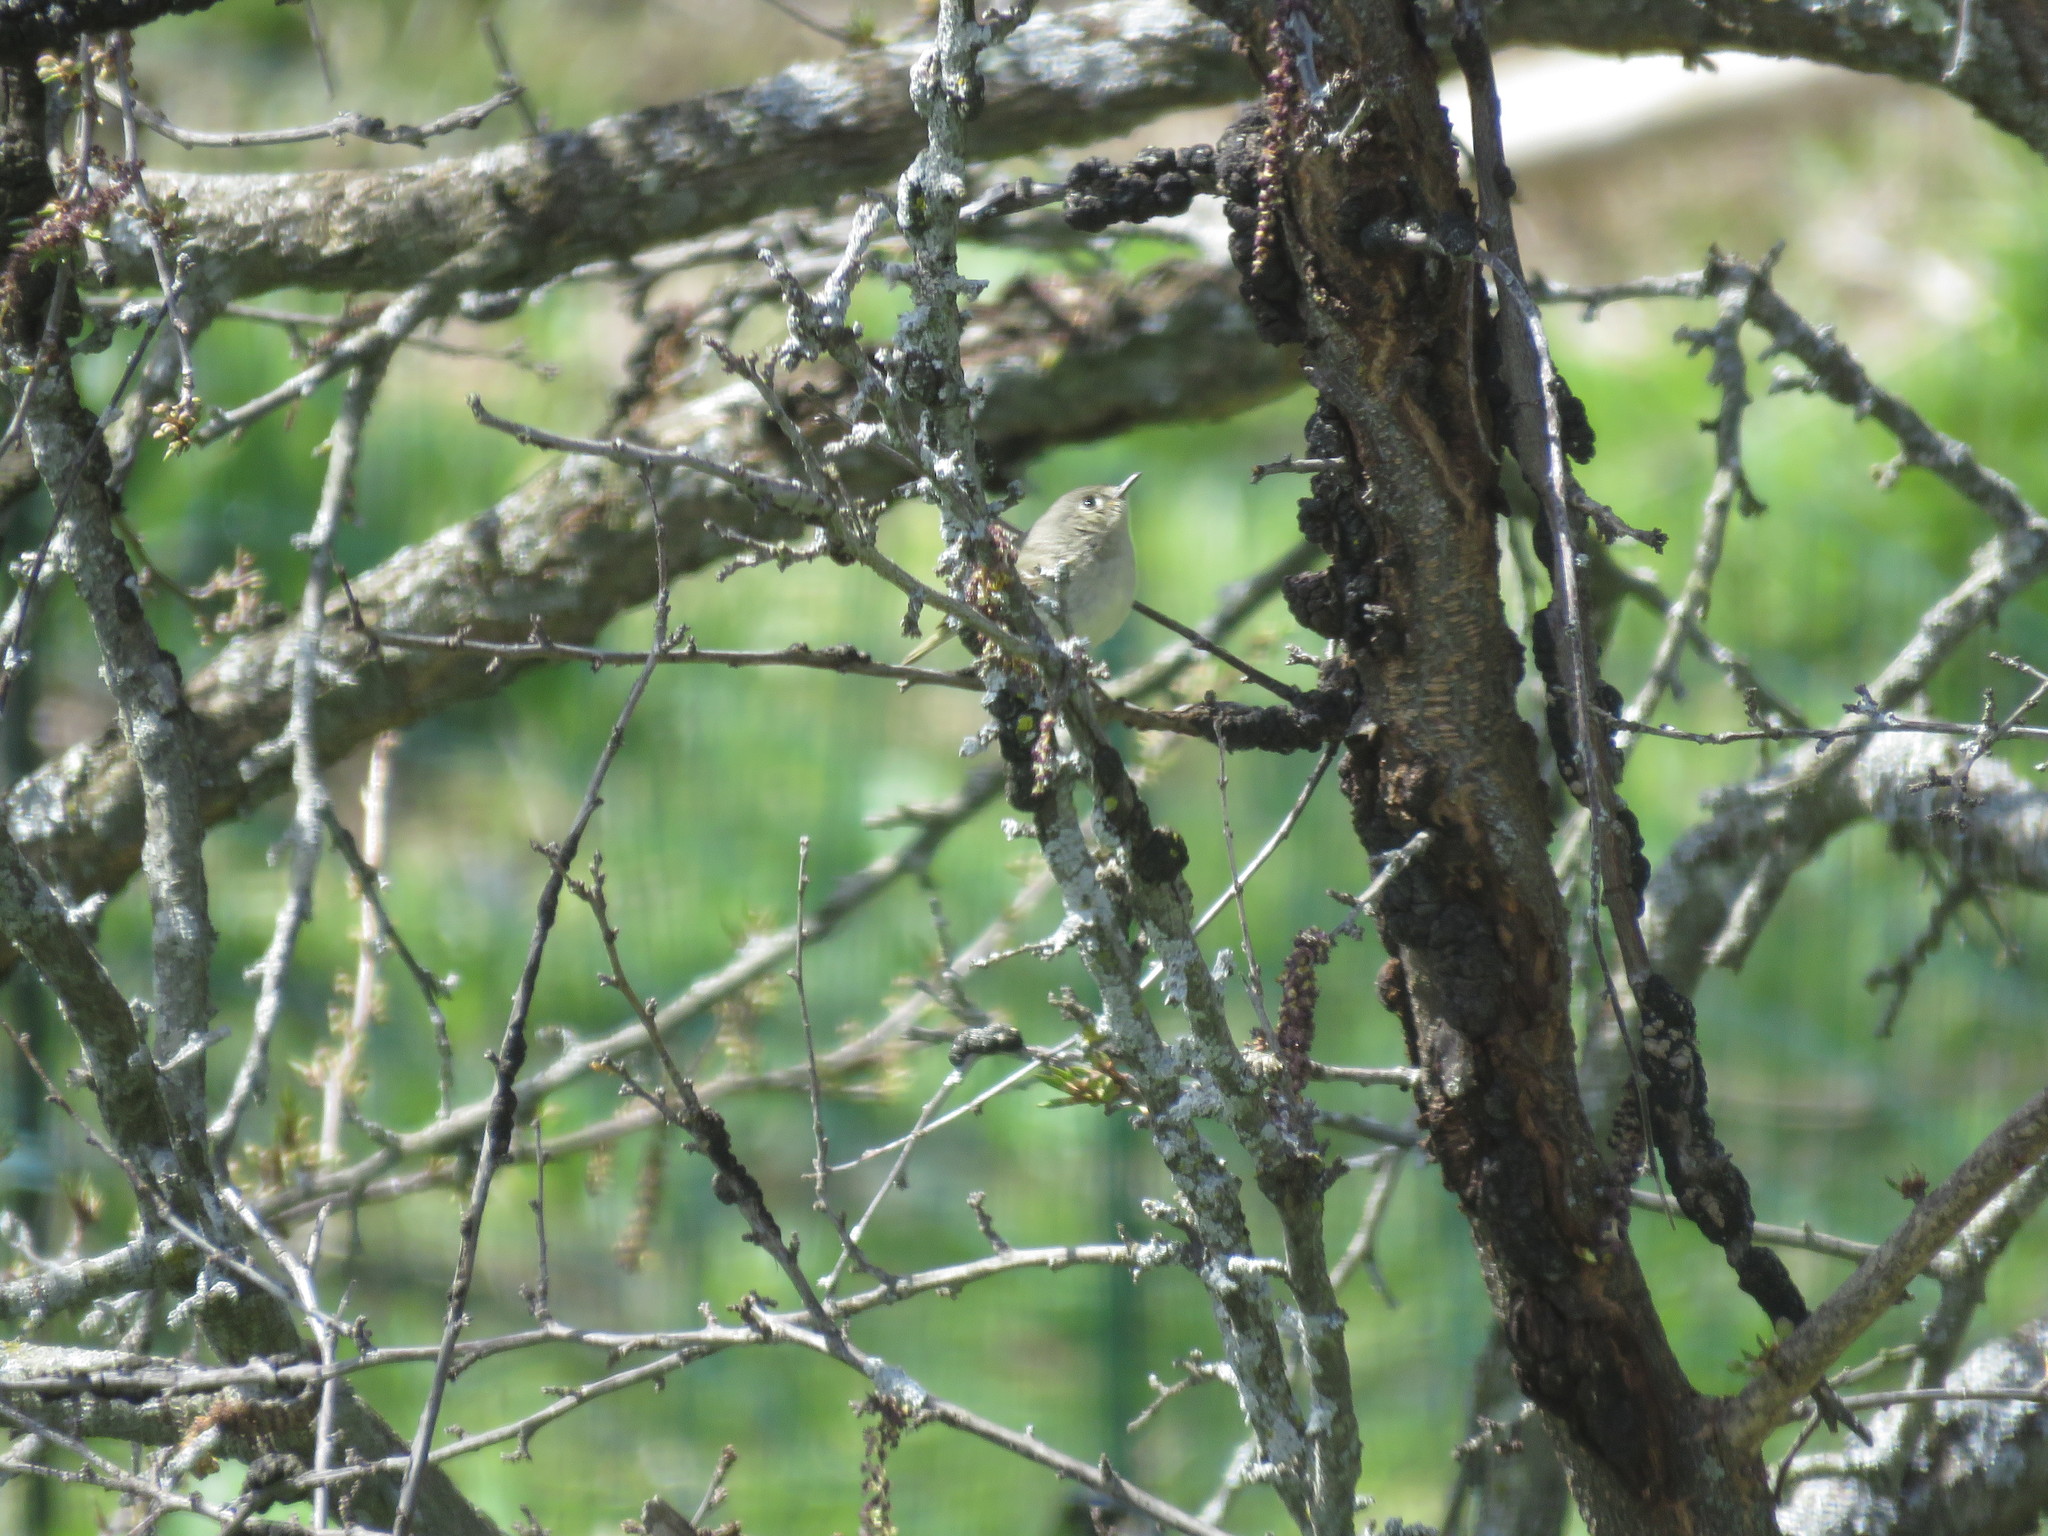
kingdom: Animalia
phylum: Chordata
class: Aves
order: Passeriformes
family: Regulidae
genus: Regulus
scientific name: Regulus calendula
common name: Ruby-crowned kinglet
